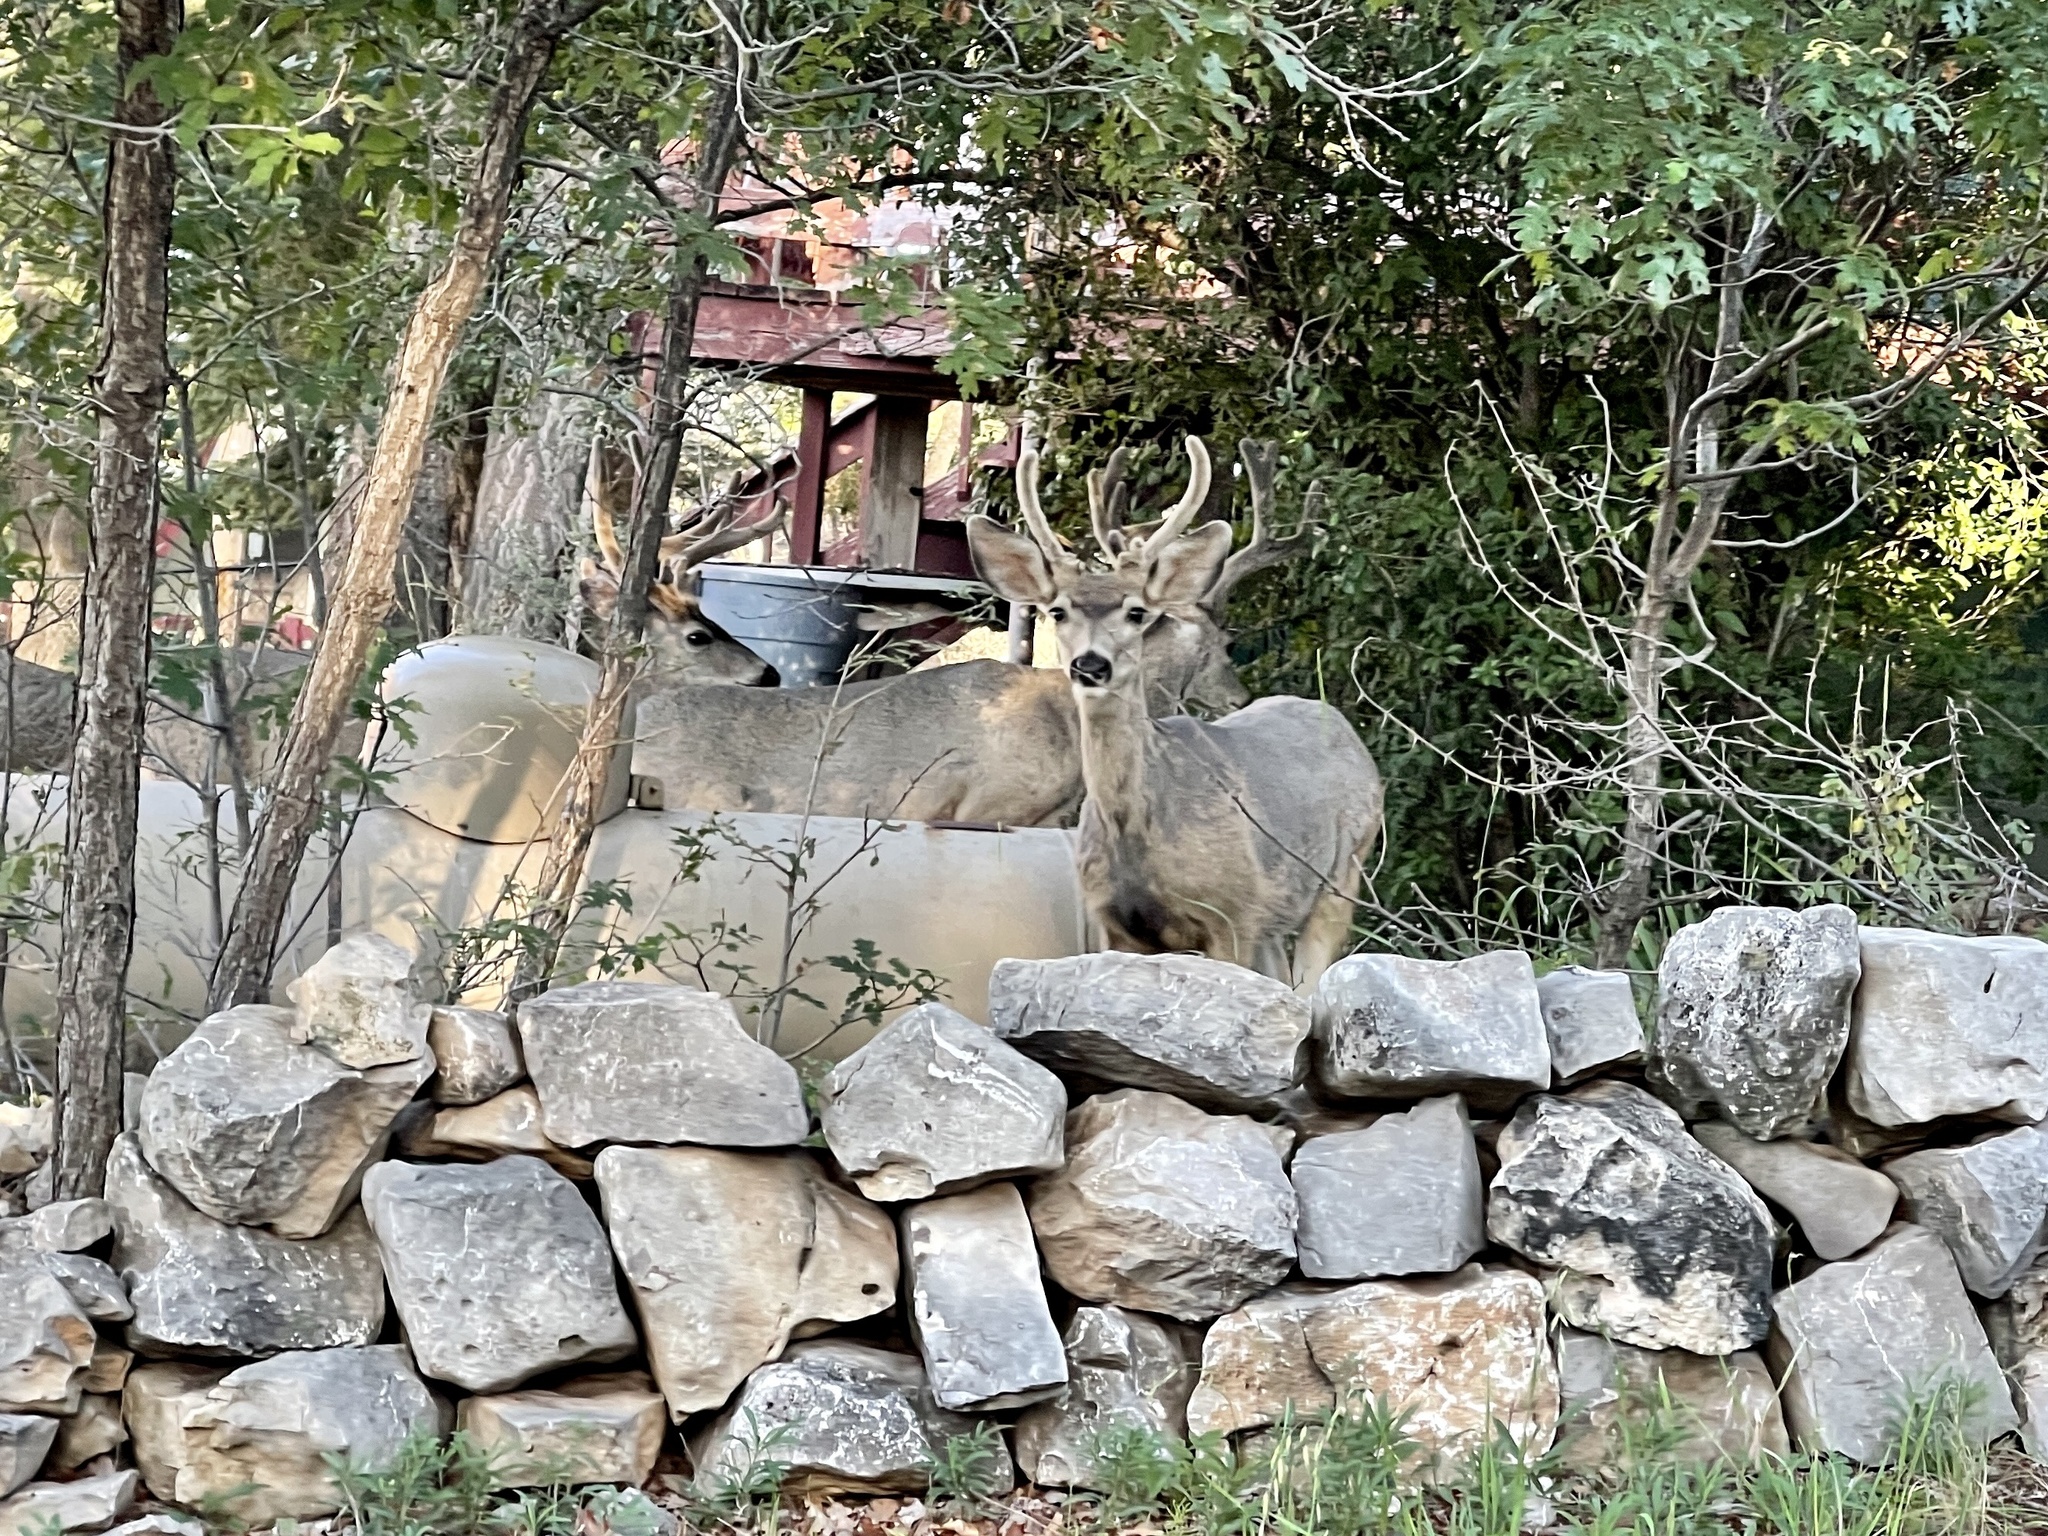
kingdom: Animalia
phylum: Chordata
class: Mammalia
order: Artiodactyla
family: Cervidae
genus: Odocoileus
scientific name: Odocoileus hemionus
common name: Mule deer
